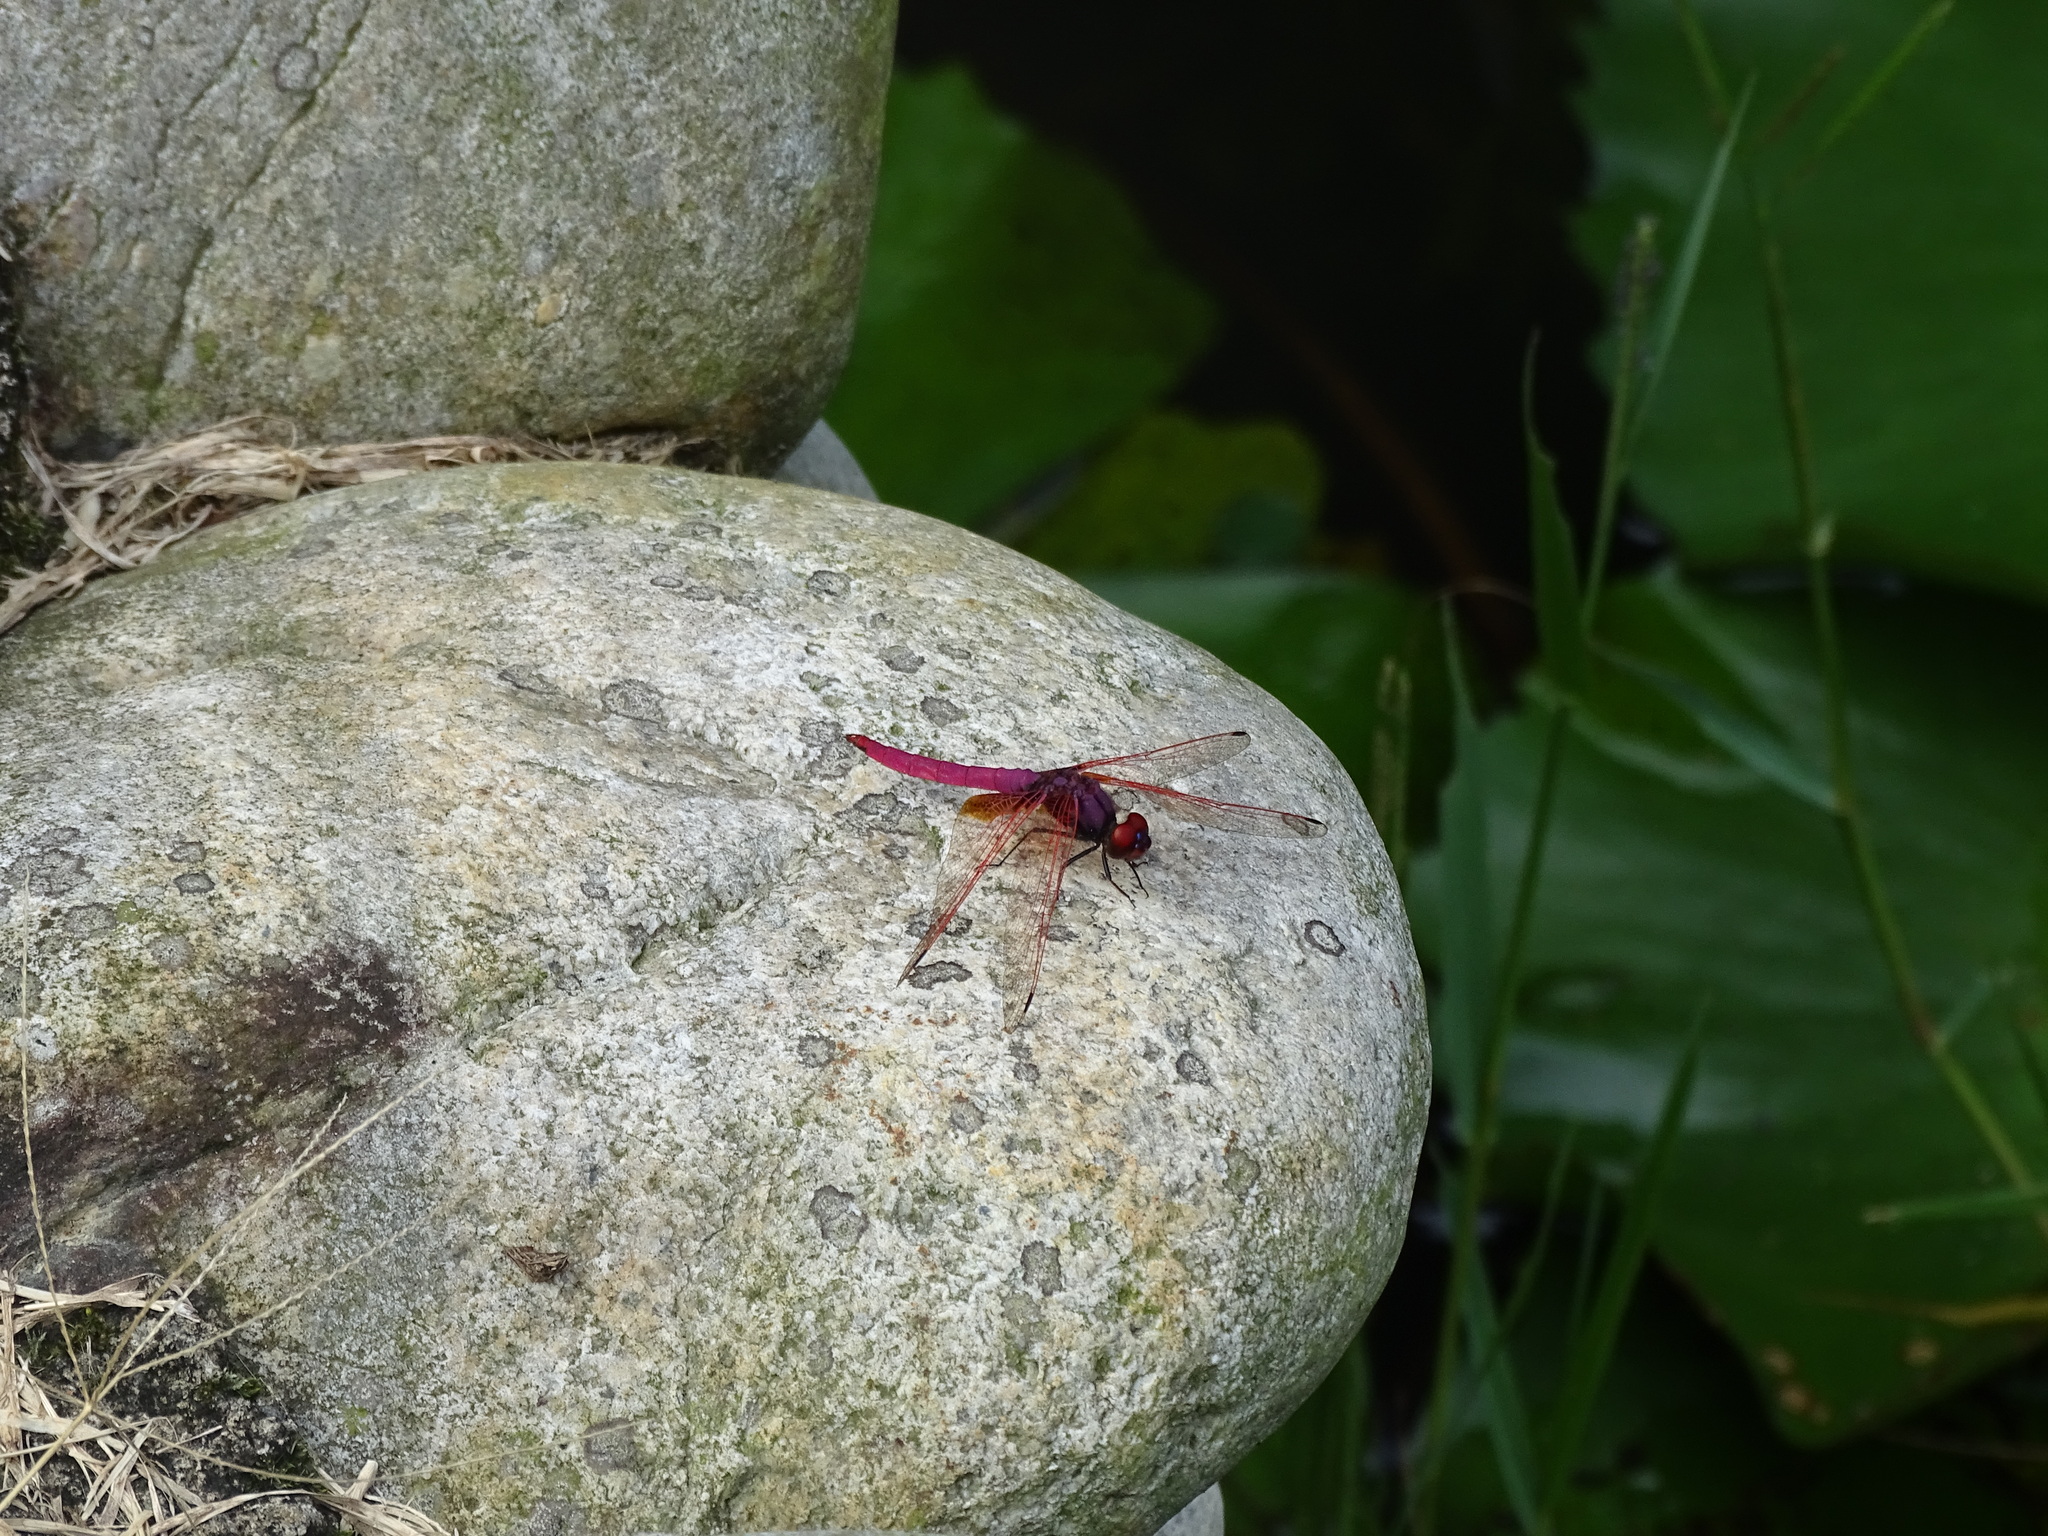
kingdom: Animalia
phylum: Arthropoda
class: Insecta
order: Odonata
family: Libellulidae
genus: Trithemis
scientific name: Trithemis aurora
